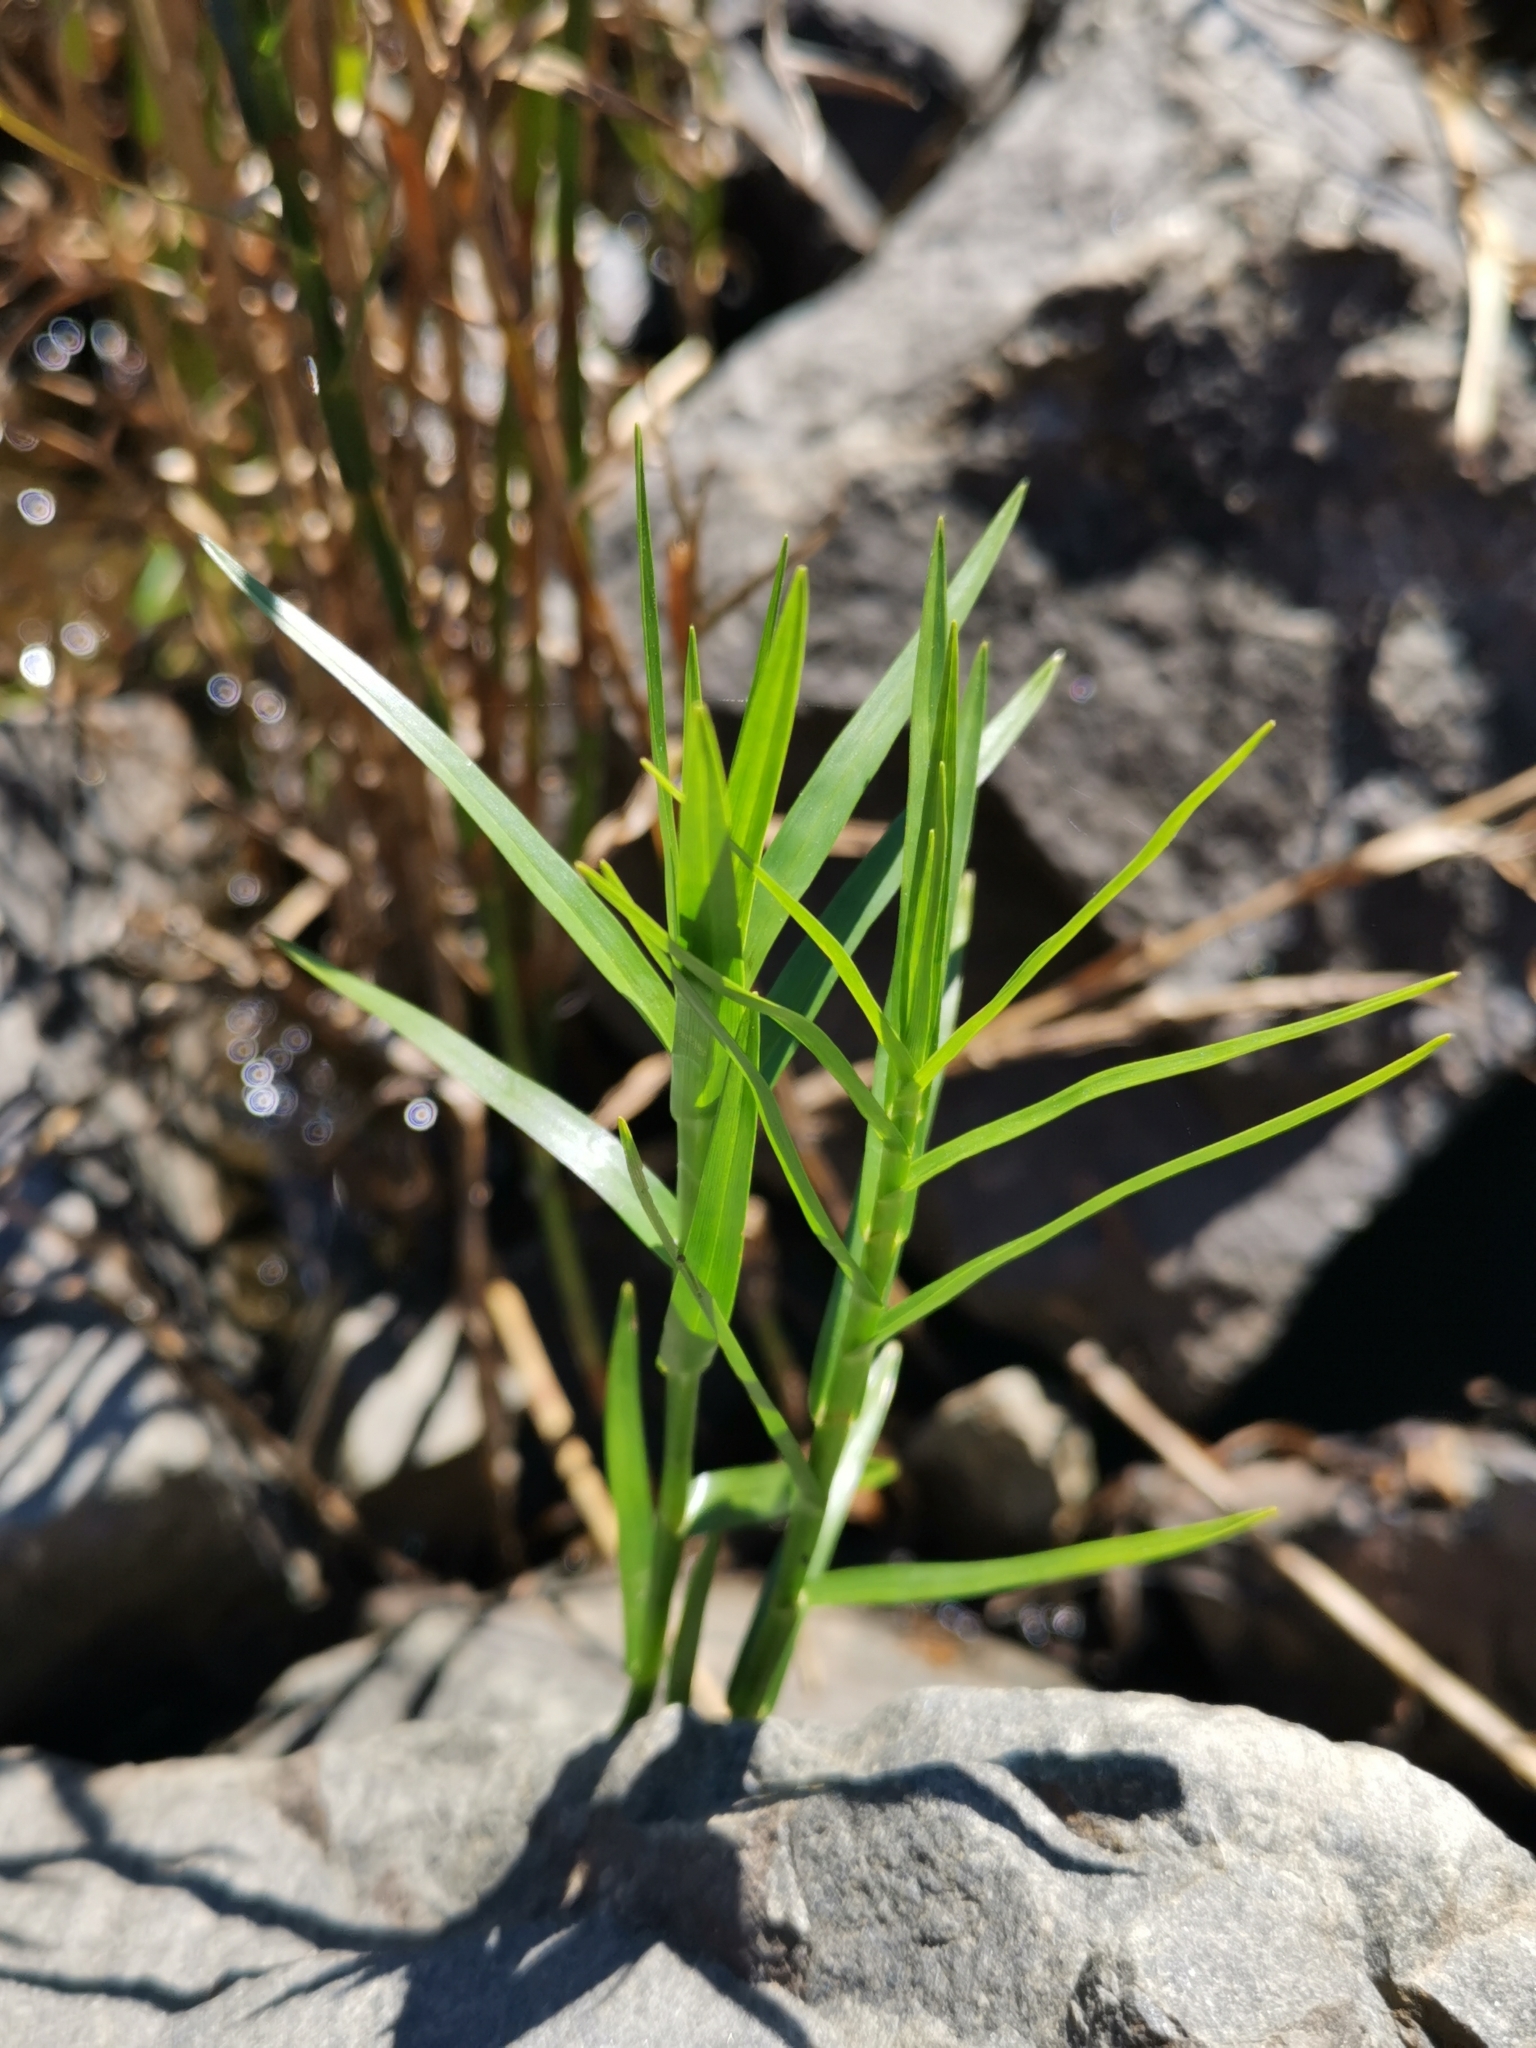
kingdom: Plantae
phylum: Tracheophyta
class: Liliopsida
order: Poales
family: Cyperaceae
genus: Dulichium
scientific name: Dulichium arundinaceum
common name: Three-way sedge
